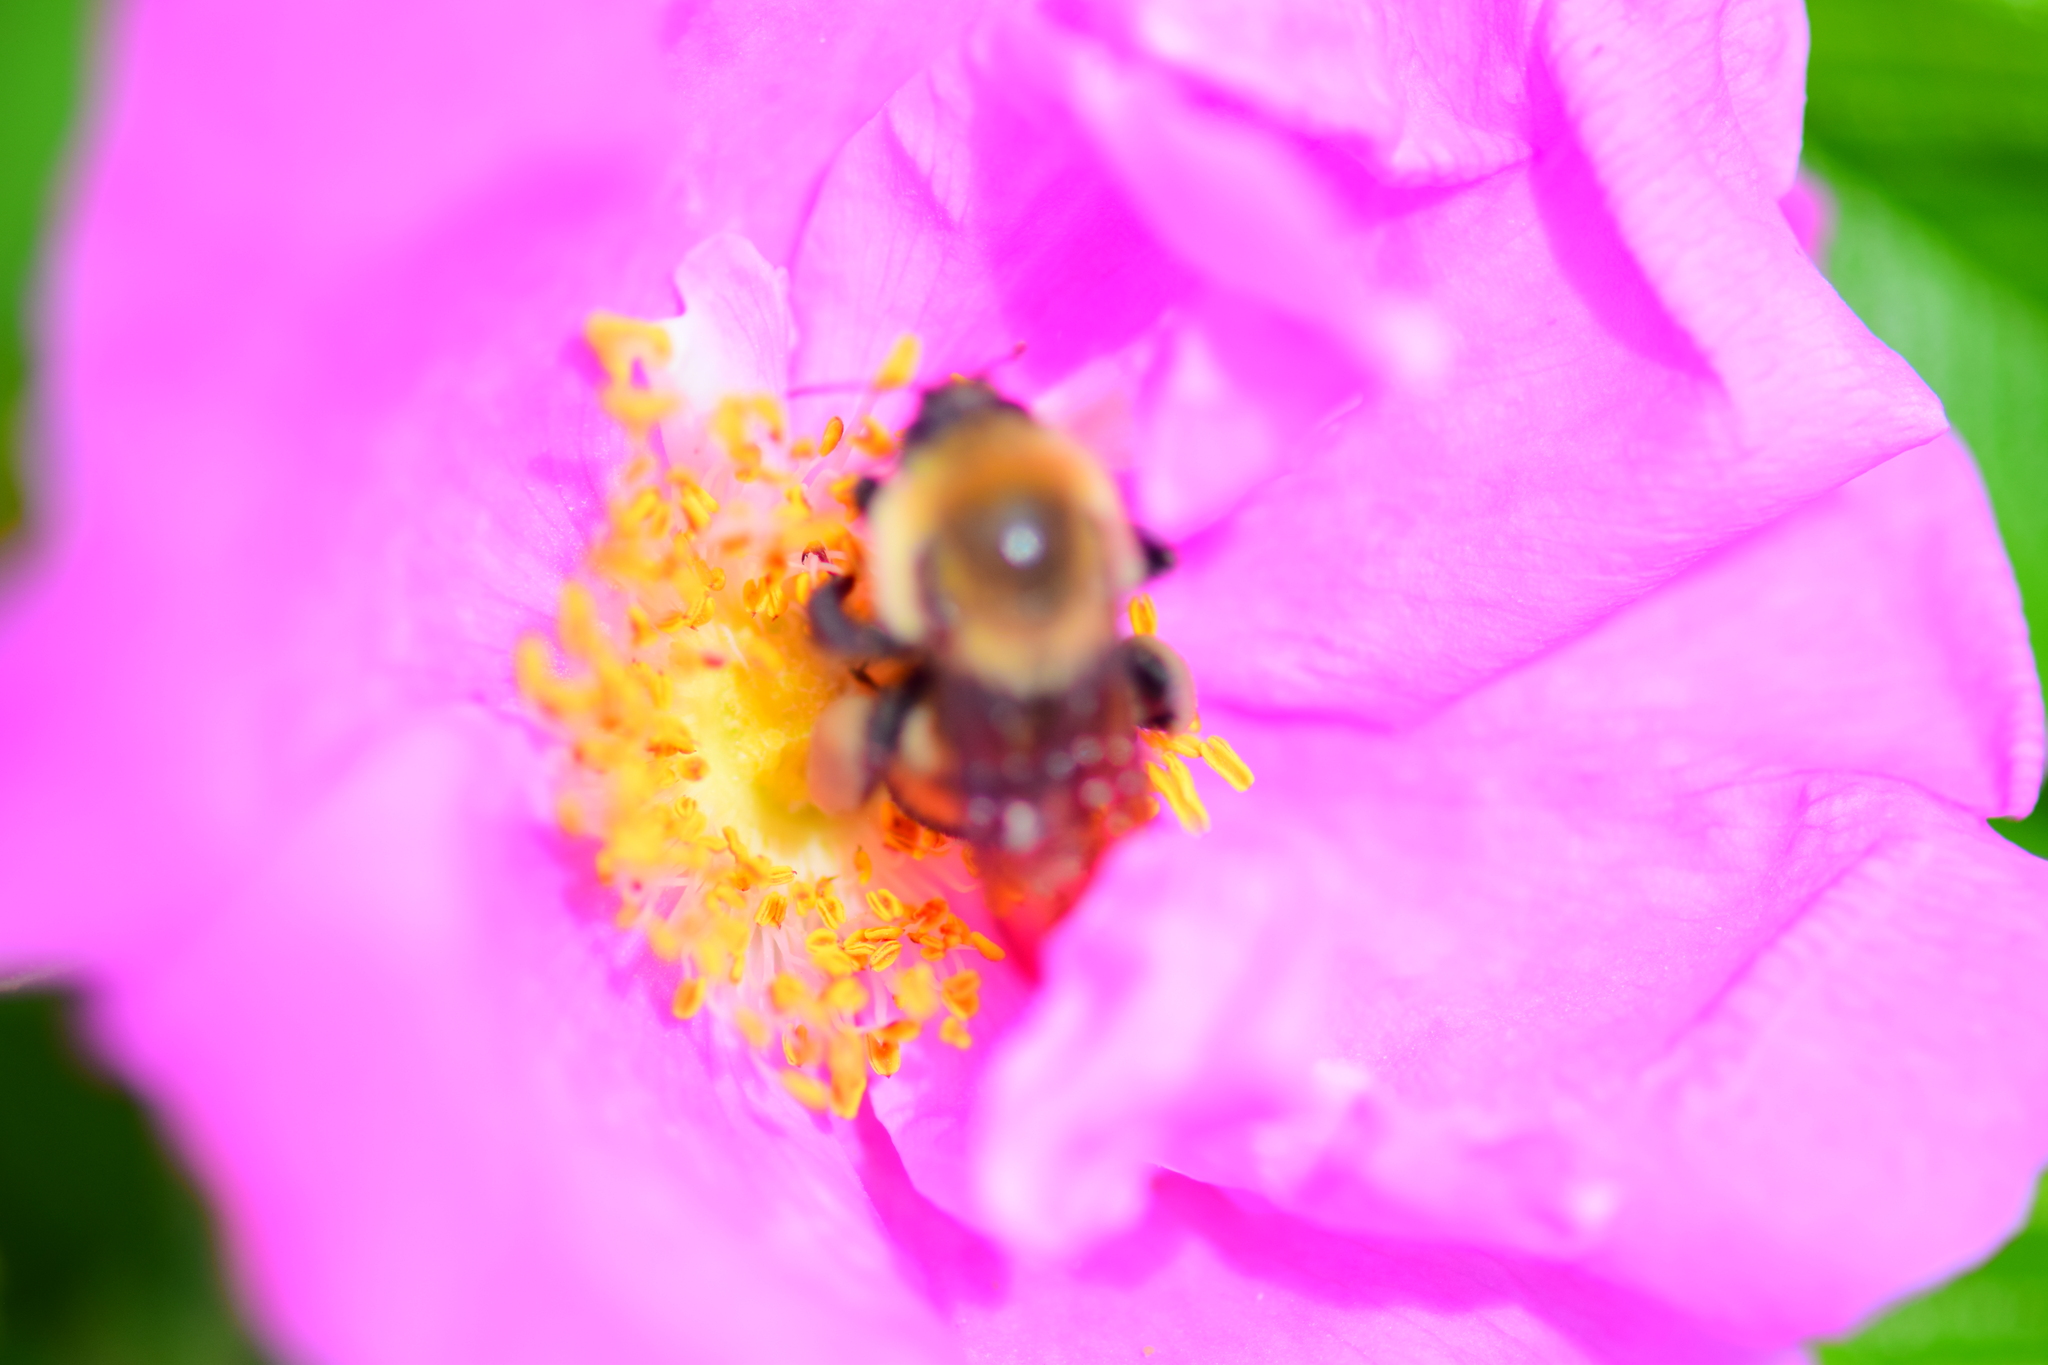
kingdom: Animalia
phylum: Arthropoda
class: Insecta
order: Hymenoptera
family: Apidae
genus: Bombus
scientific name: Bombus griseocollis
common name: Brown-belted bumble bee
